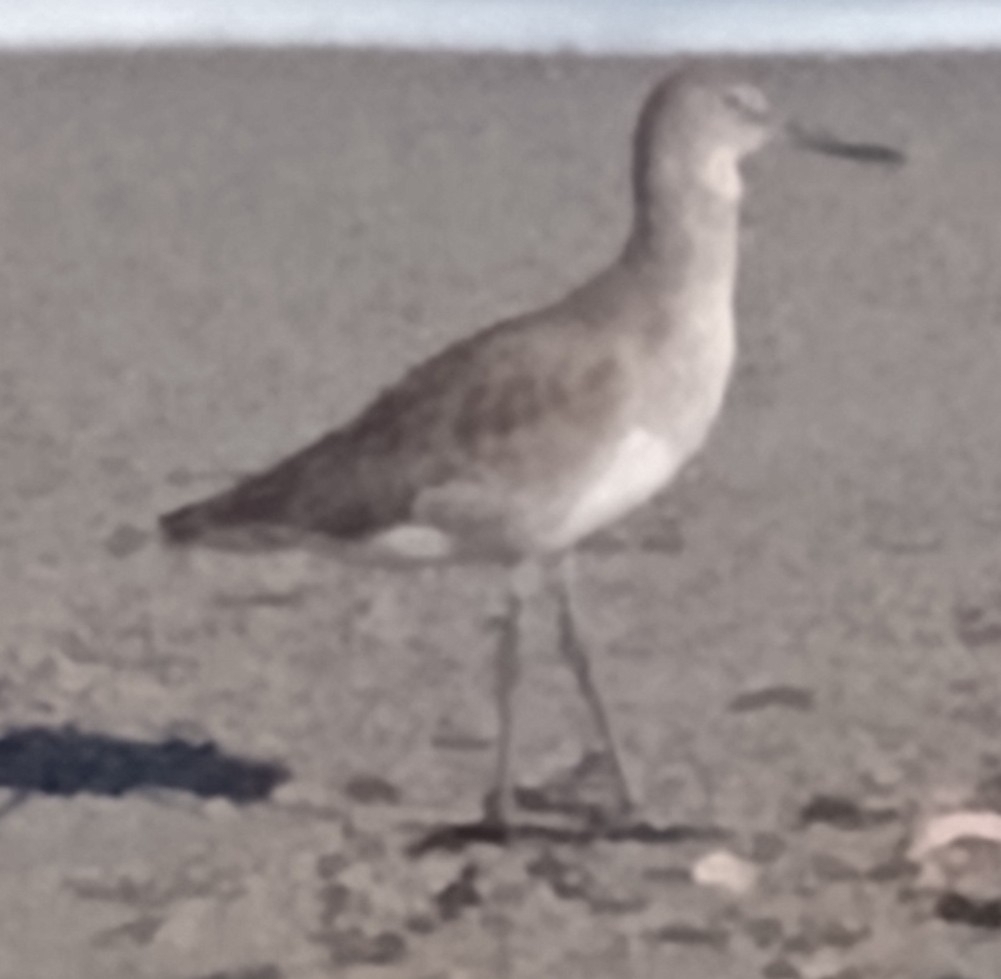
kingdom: Animalia
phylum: Chordata
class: Aves
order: Charadriiformes
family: Scolopacidae
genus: Tringa
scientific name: Tringa semipalmata
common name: Willet
